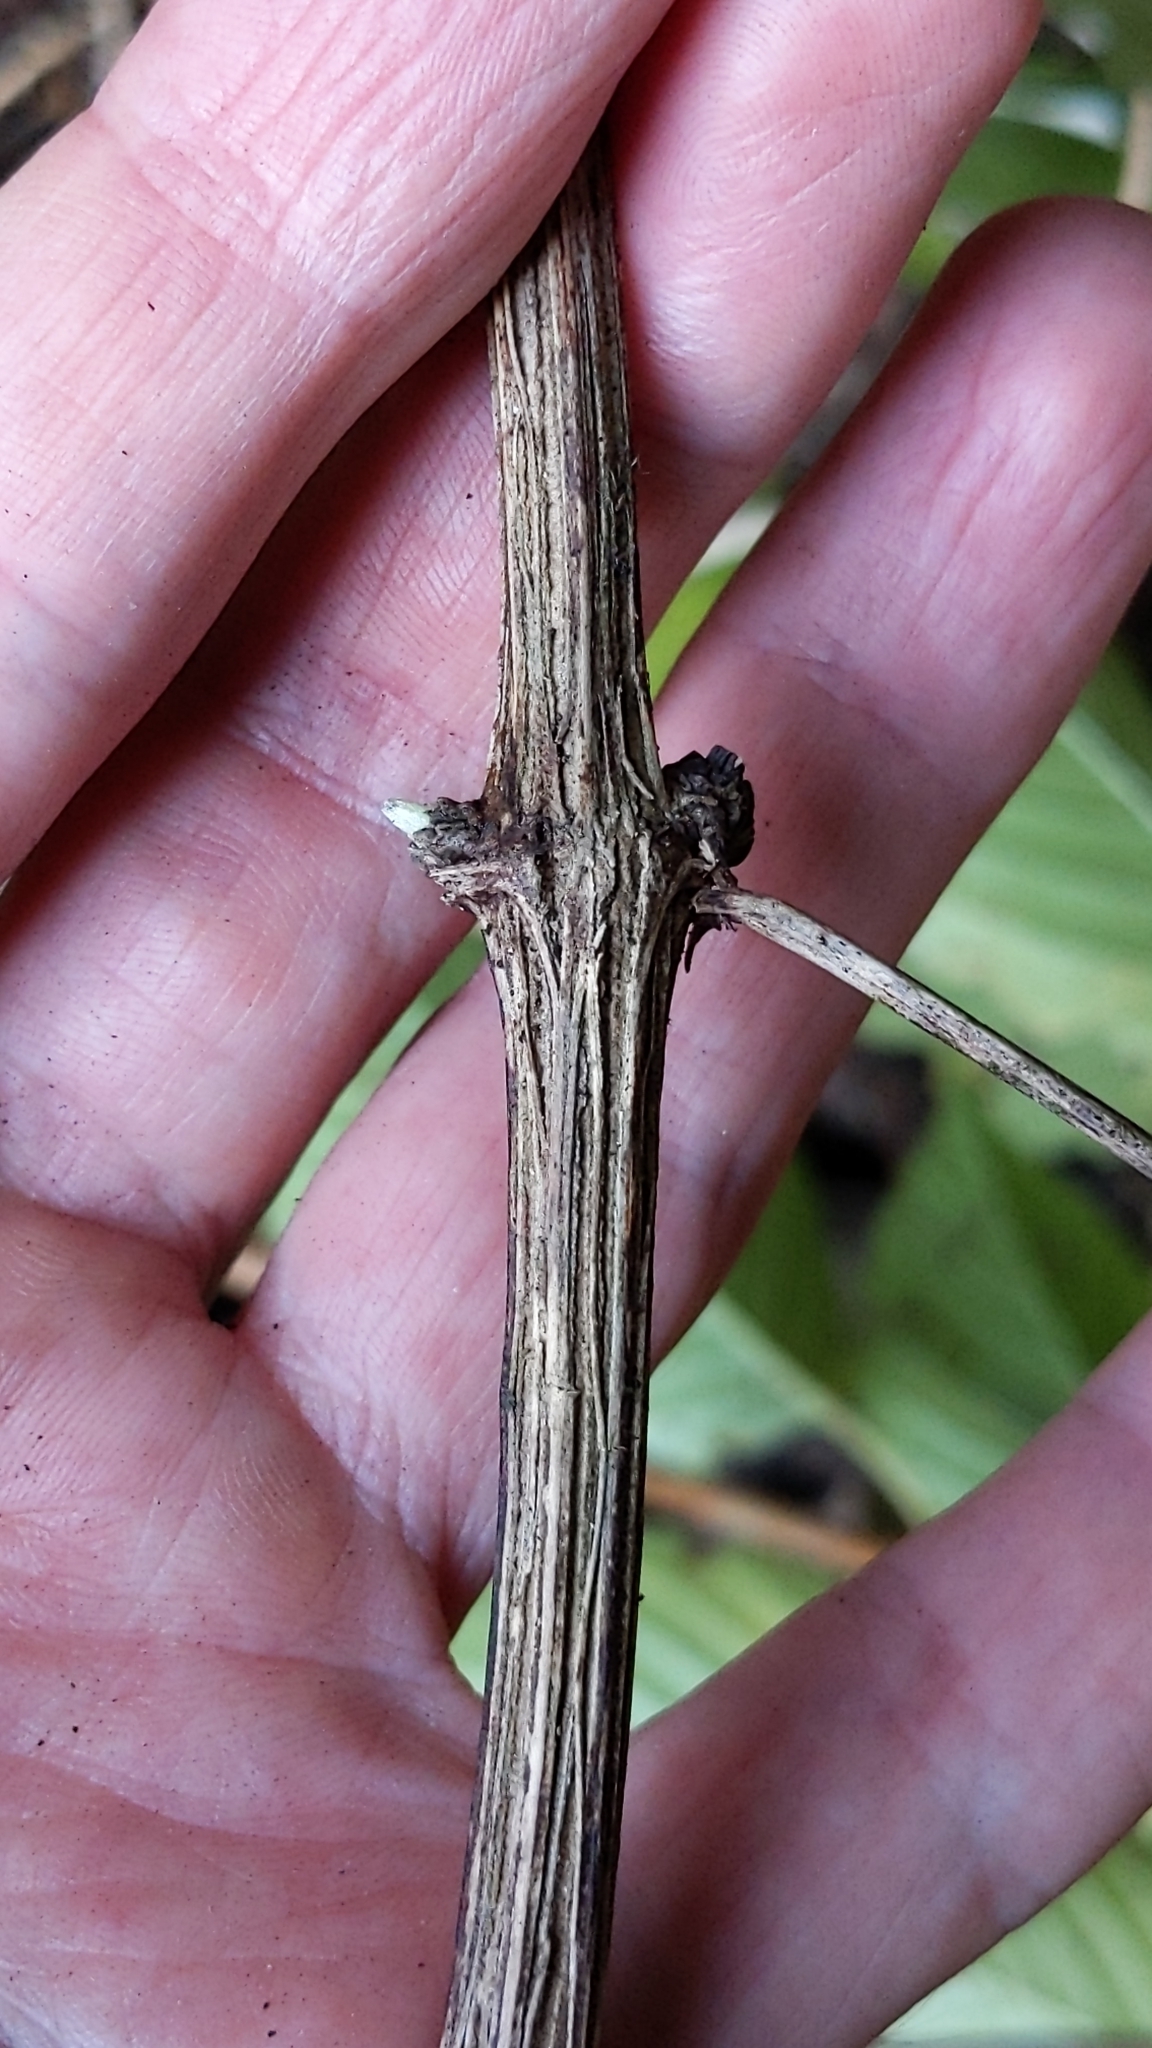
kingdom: Plantae
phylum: Tracheophyta
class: Magnoliopsida
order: Ranunculales
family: Ranunculaceae
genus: Clematis
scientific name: Clematis vitalba
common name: Evergreen clematis
